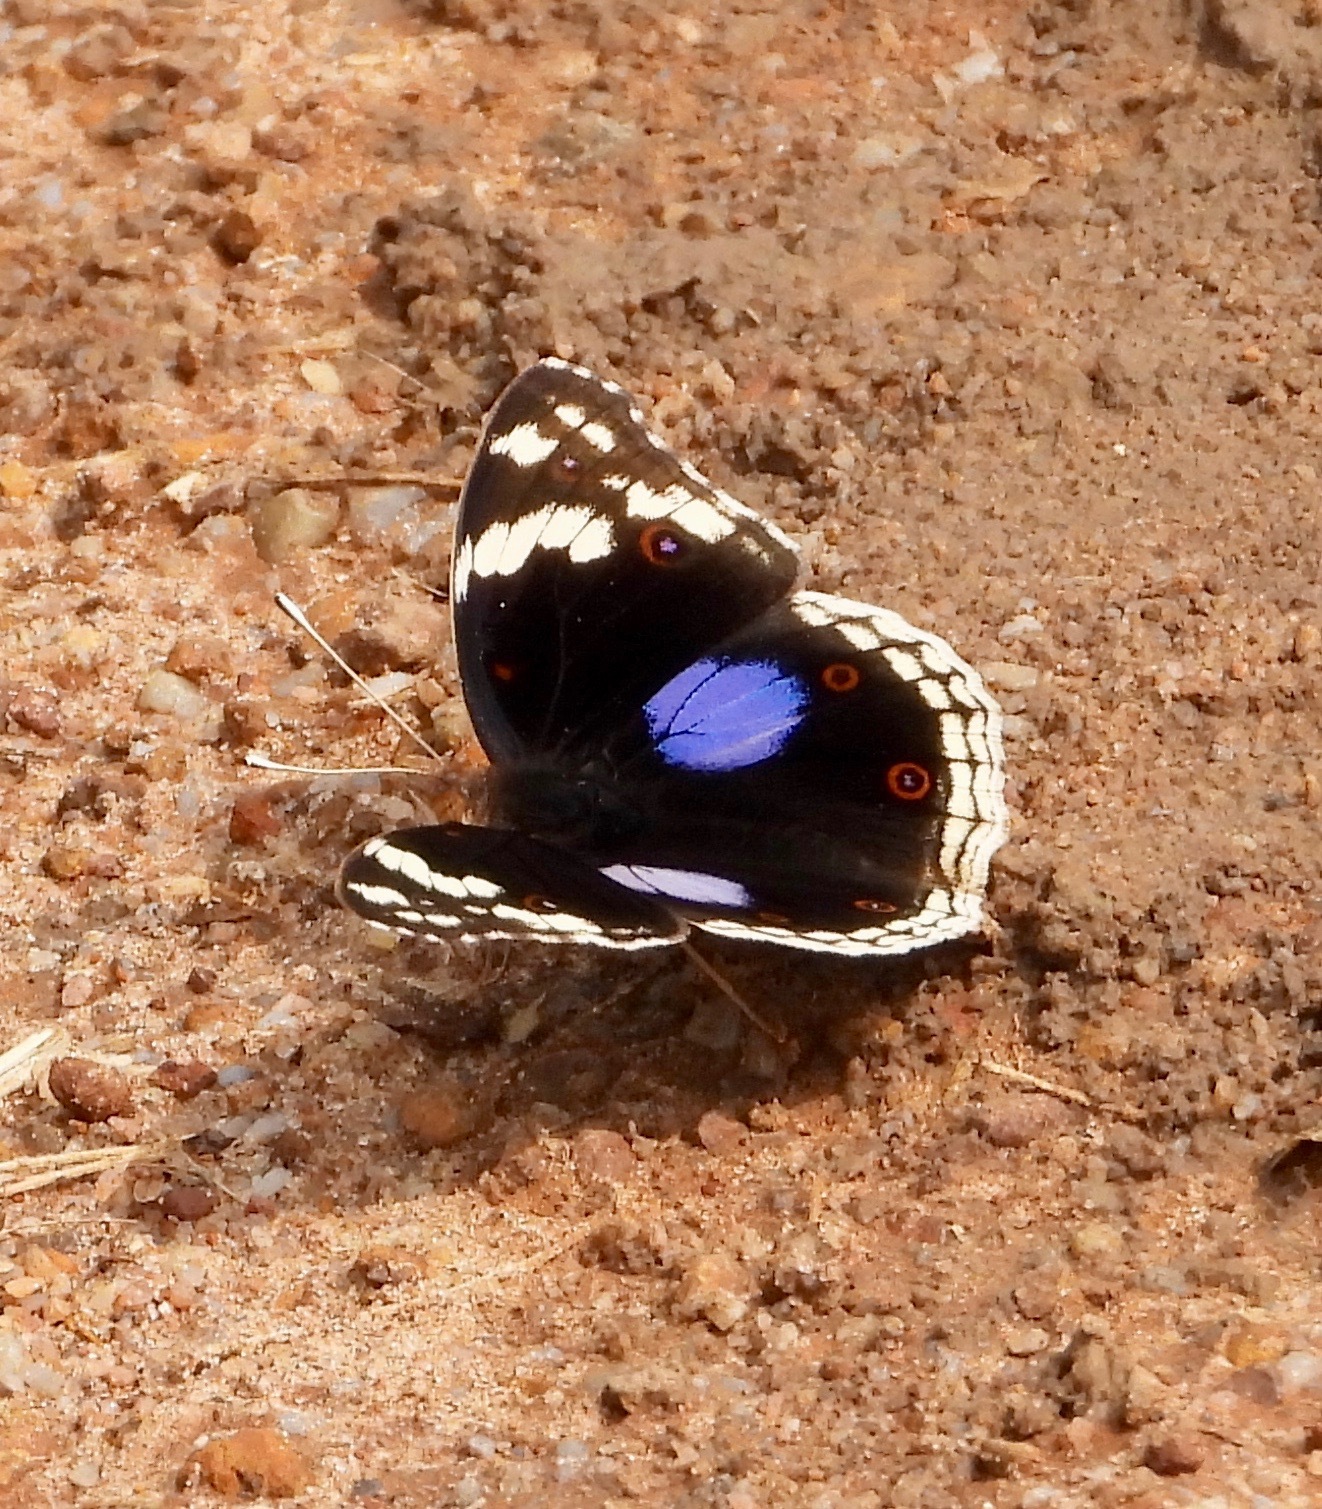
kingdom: Animalia
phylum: Arthropoda
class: Insecta
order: Lepidoptera
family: Nymphalidae
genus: Junonia
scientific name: Junonia oenone
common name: Dark blue pansy
